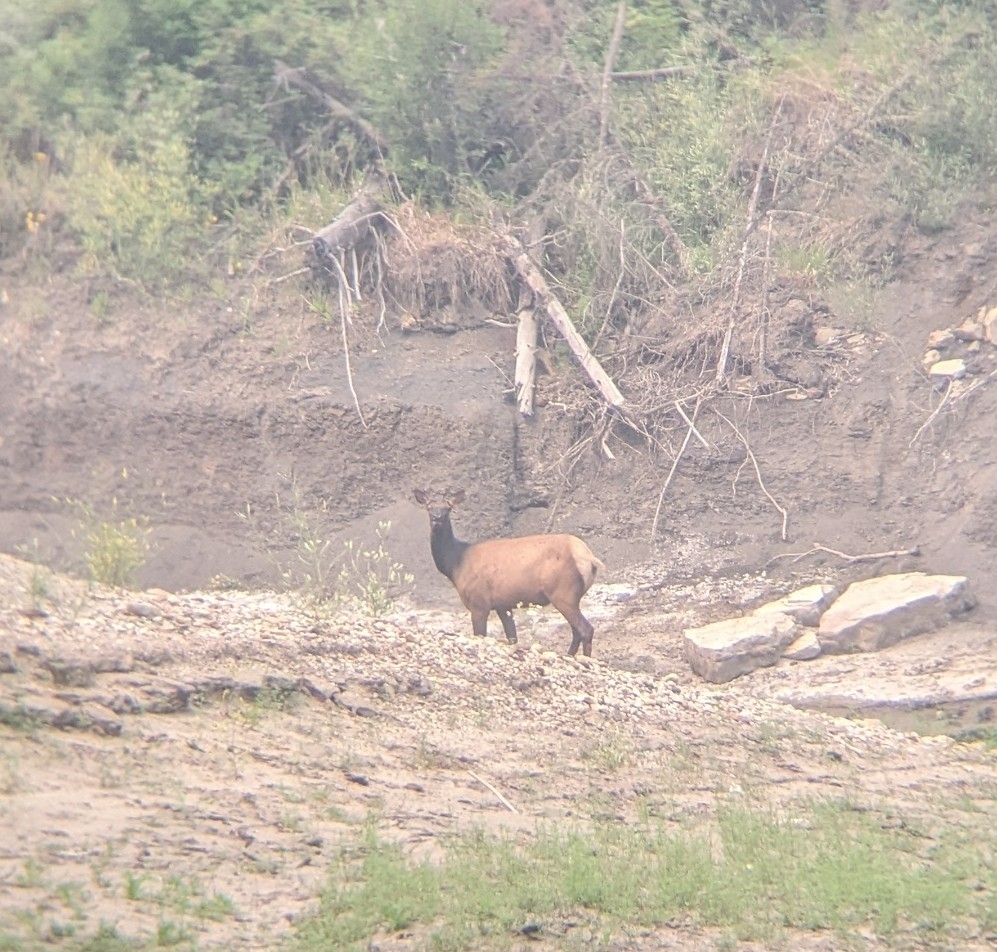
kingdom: Animalia
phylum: Chordata
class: Mammalia
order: Artiodactyla
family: Cervidae
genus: Cervus
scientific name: Cervus elaphus
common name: Red deer
